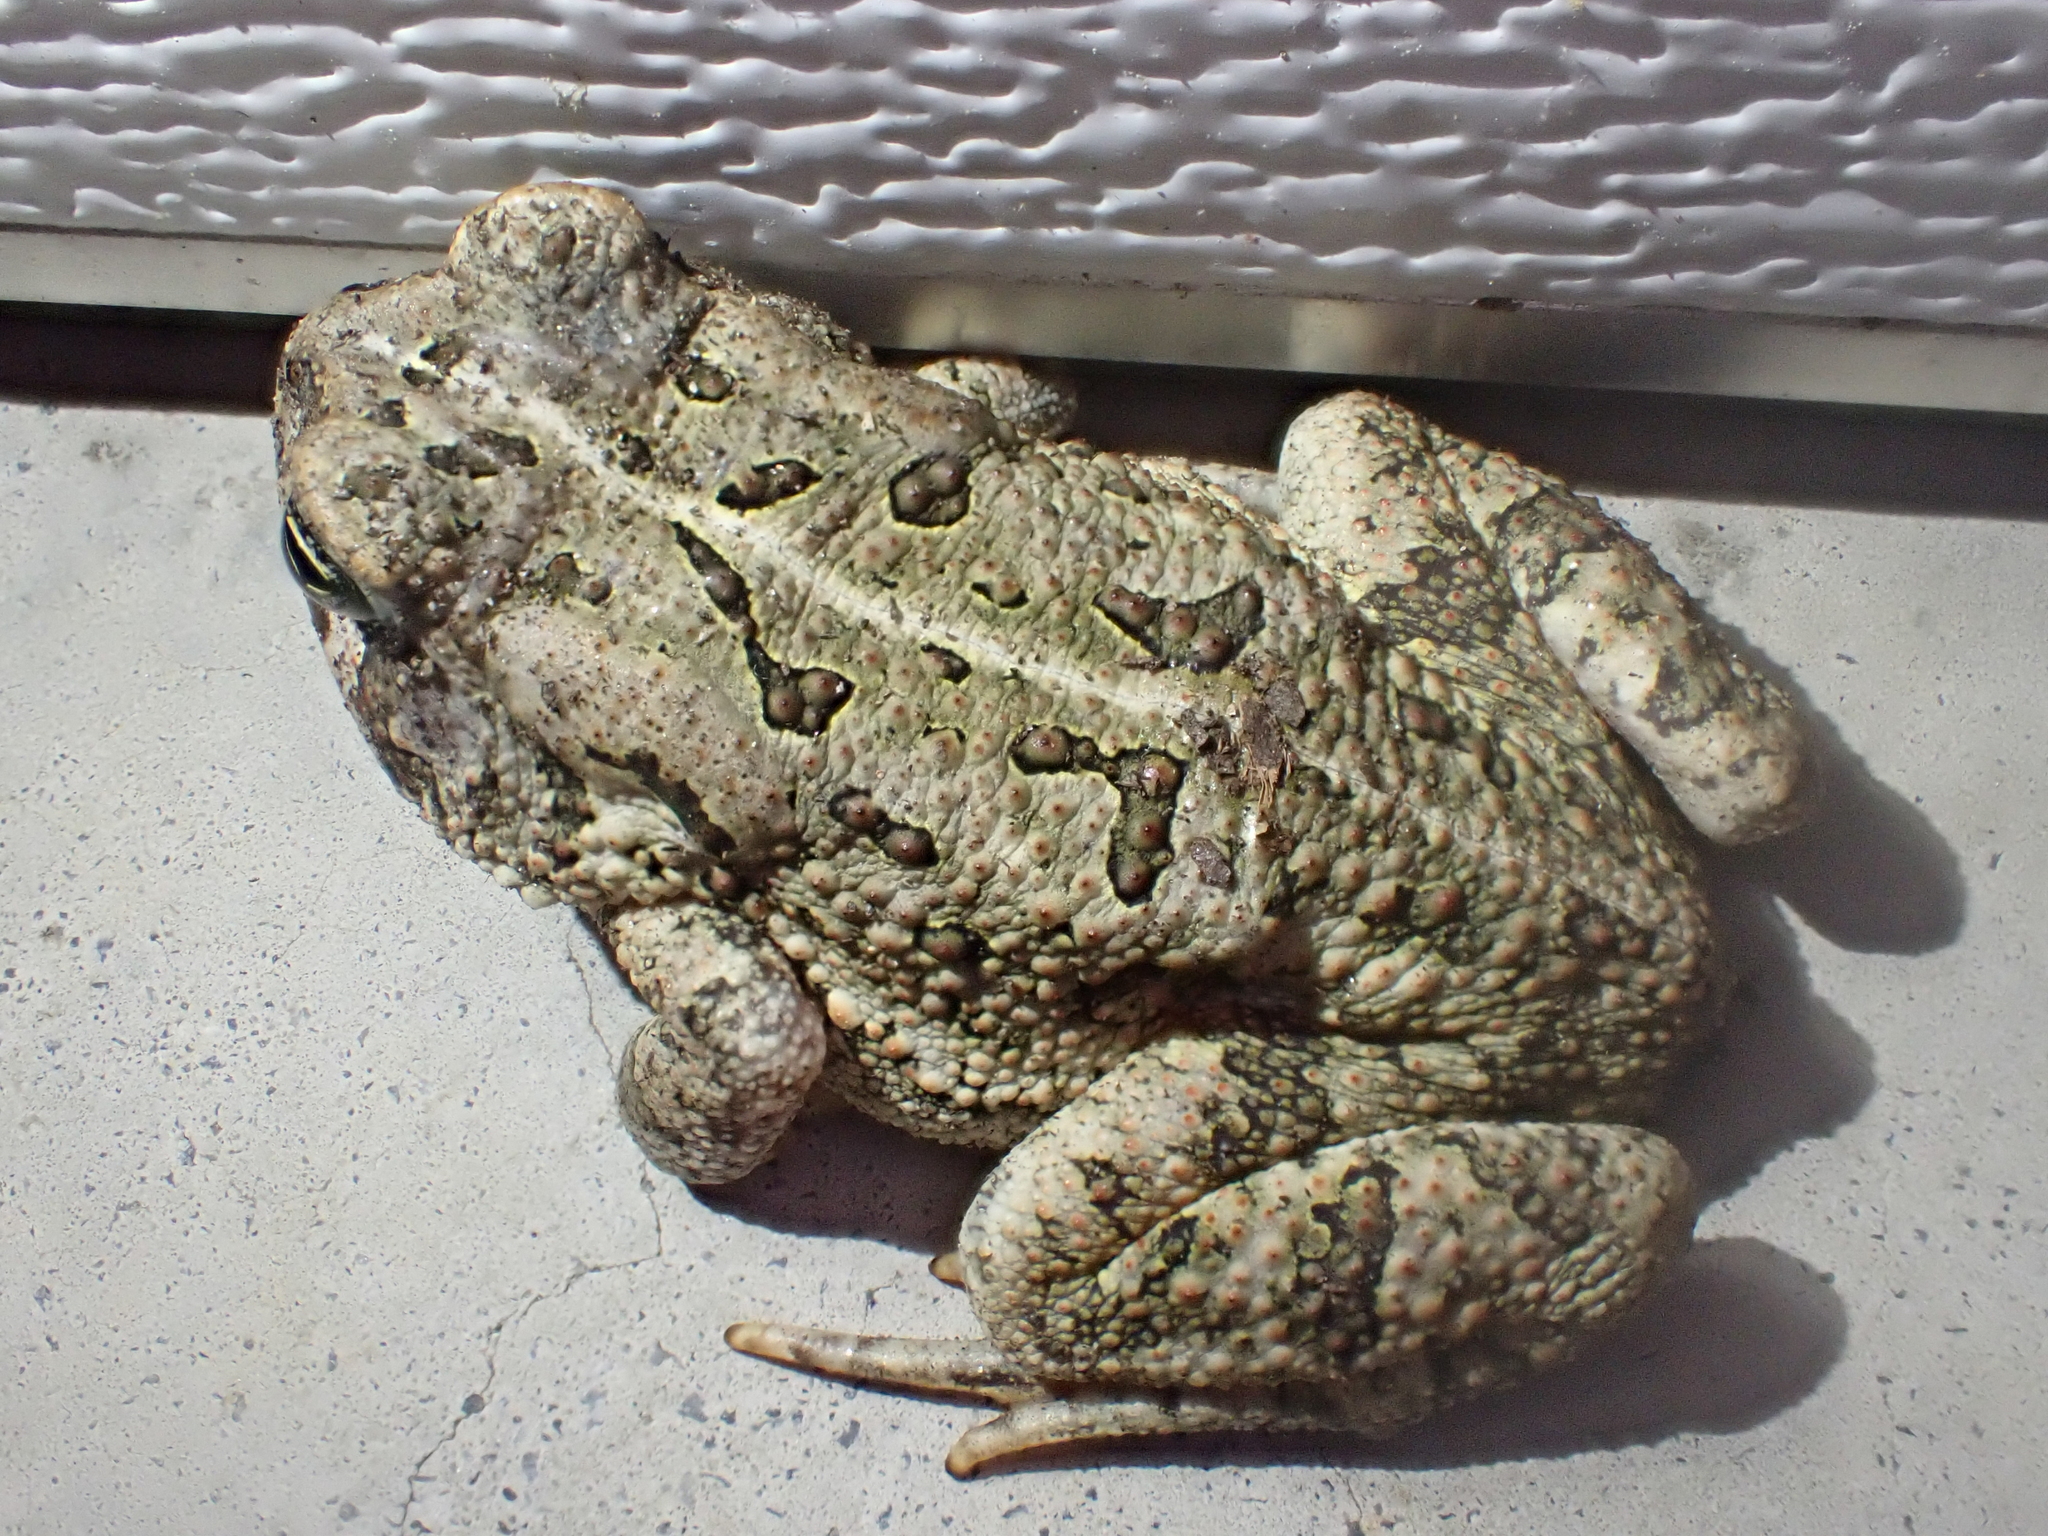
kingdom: Animalia
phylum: Chordata
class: Amphibia
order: Anura
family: Bufonidae
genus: Anaxyrus
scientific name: Anaxyrus fowleri
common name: Fowler's toad
